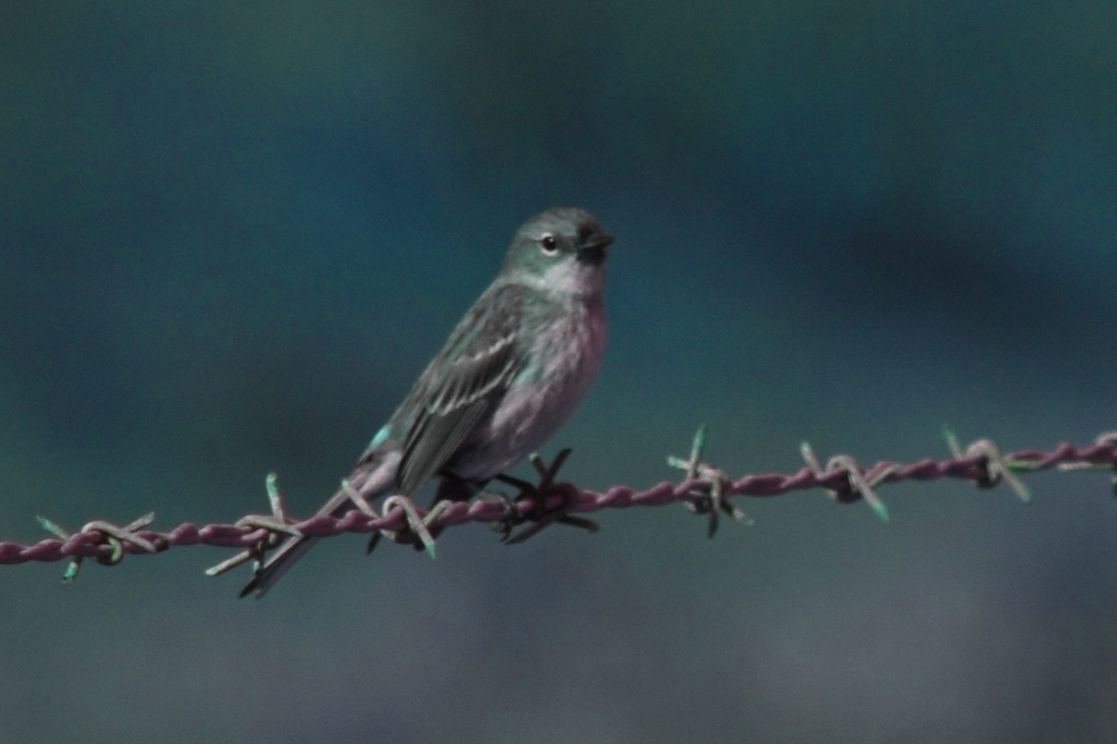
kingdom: Animalia
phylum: Chordata
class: Aves
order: Passeriformes
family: Parulidae
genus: Setophaga
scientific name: Setophaga coronata
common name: Myrtle warbler
